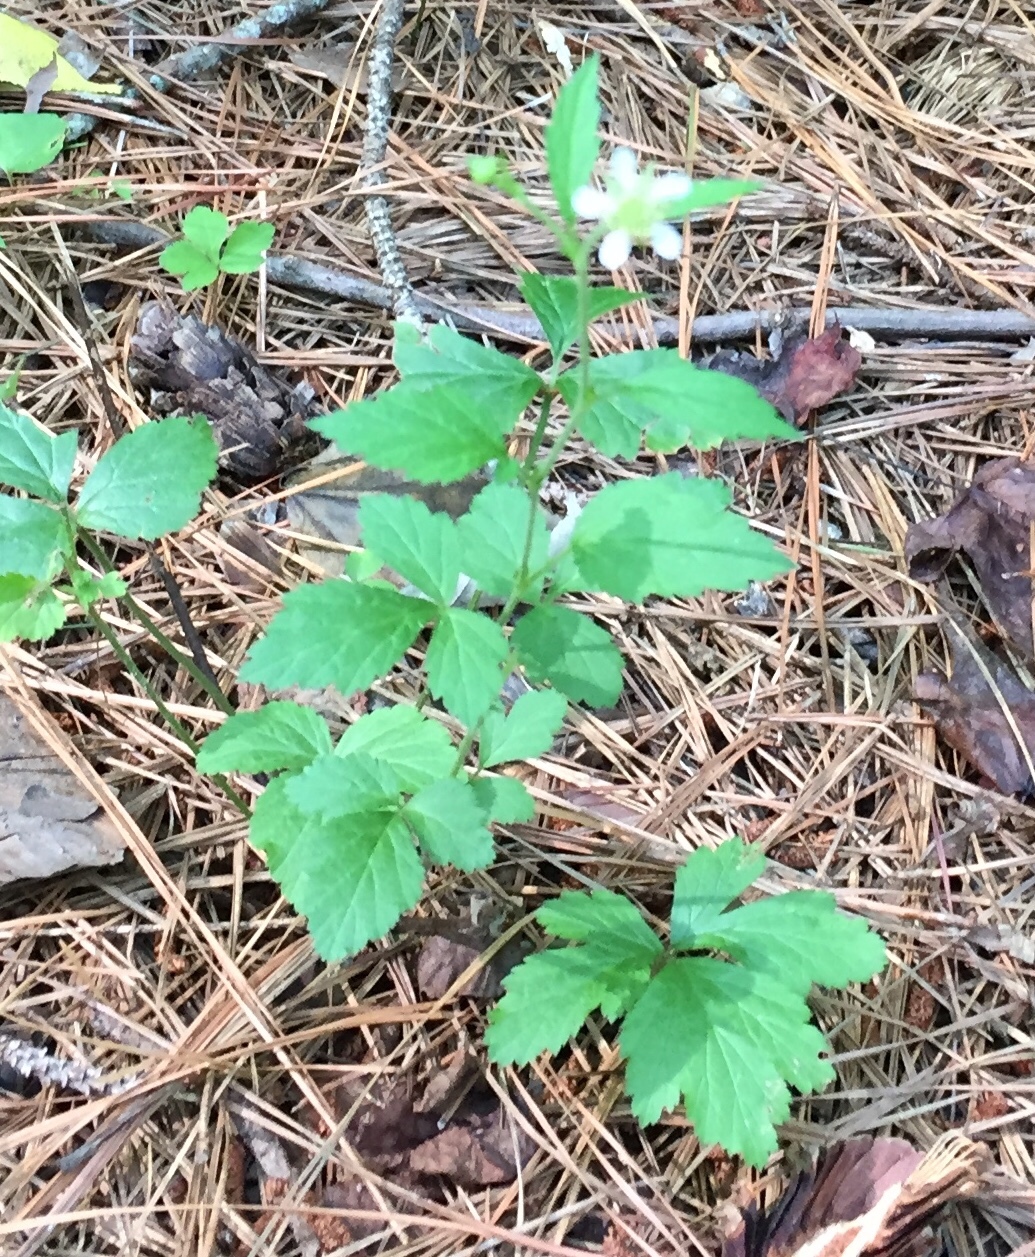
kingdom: Plantae
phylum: Tracheophyta
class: Magnoliopsida
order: Rosales
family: Rosaceae
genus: Geum
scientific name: Geum canadense
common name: White avens
